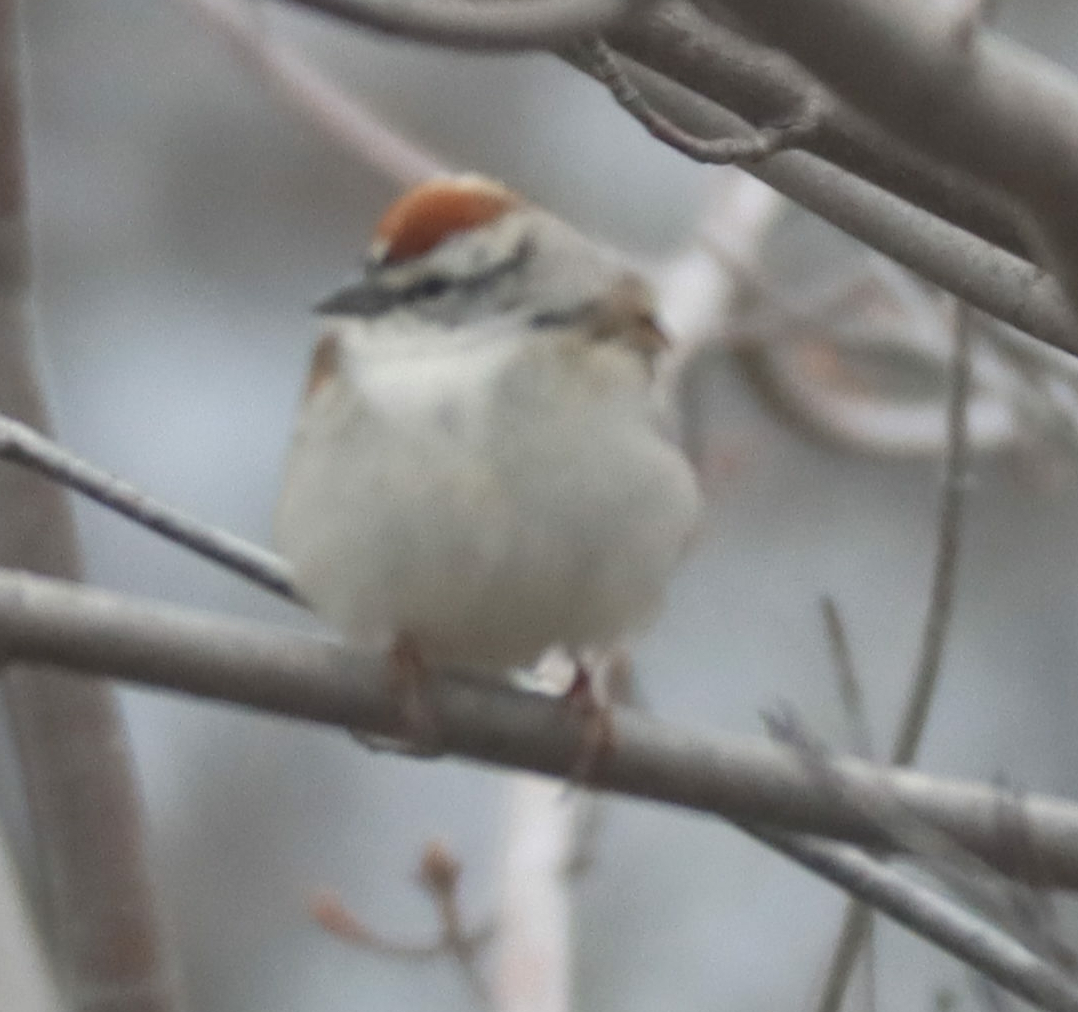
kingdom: Animalia
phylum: Chordata
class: Aves
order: Passeriformes
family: Passerellidae
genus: Spizella
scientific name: Spizella passerina
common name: Chipping sparrow
